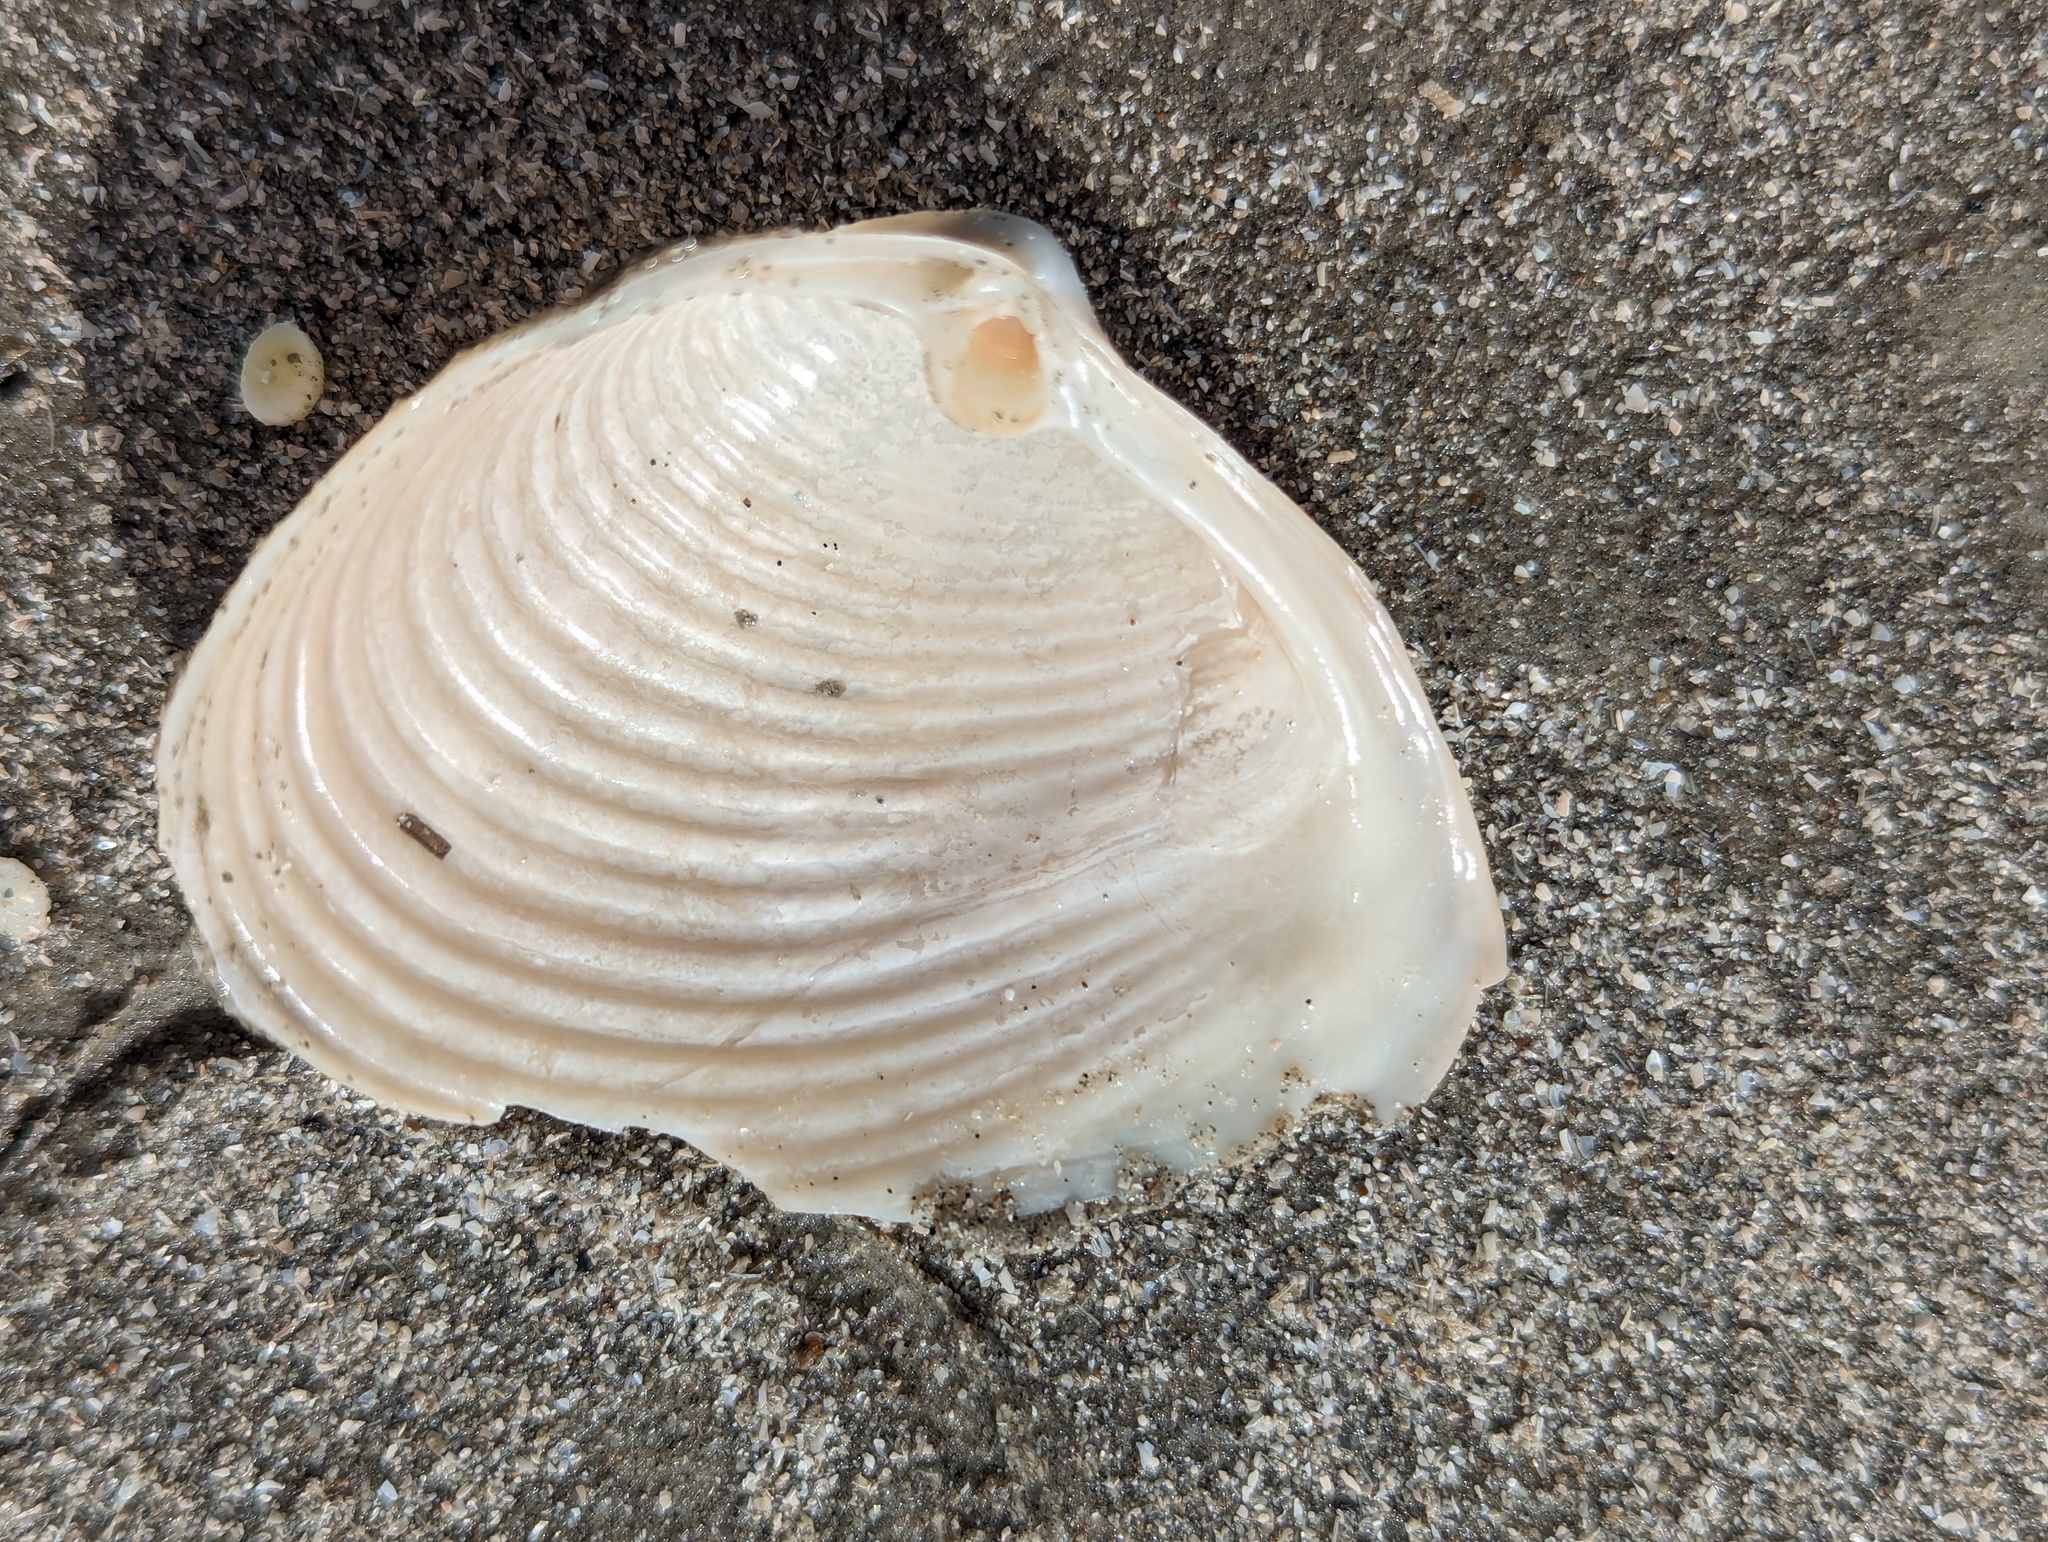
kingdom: Animalia
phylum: Mollusca
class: Bivalvia
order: Venerida
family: Anatinellidae
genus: Raeta
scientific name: Raeta plicatella
